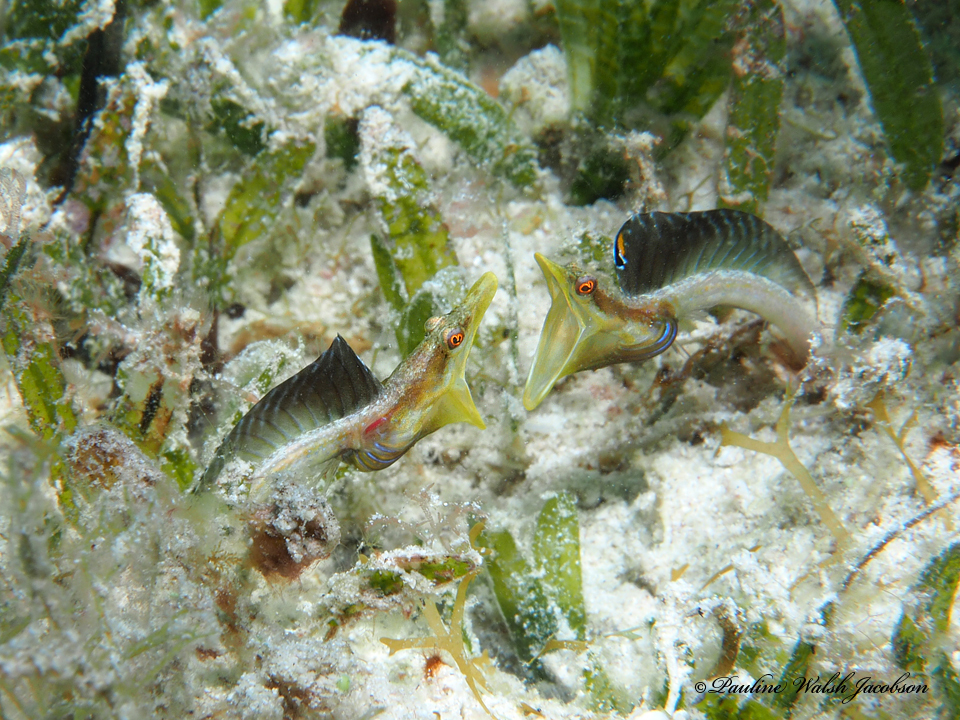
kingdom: Animalia
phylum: Chordata
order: Perciformes
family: Chaenopsidae
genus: Chaenopsis
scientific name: Chaenopsis ocellata
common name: Bluethroat pikeblenny
